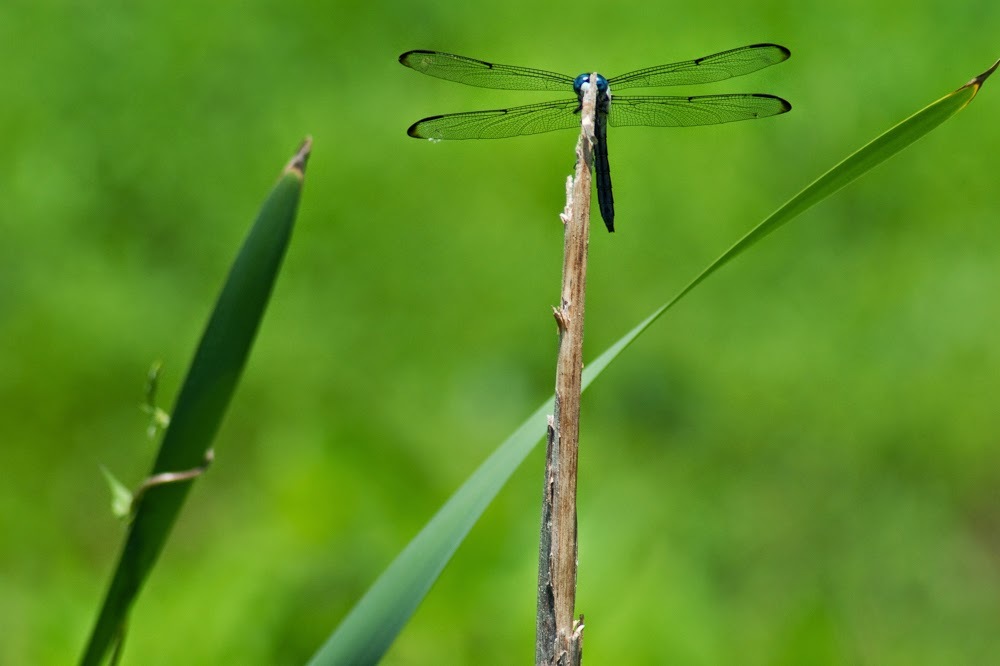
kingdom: Animalia
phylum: Arthropoda
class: Insecta
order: Odonata
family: Libellulidae
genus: Libellula
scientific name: Libellula vibrans
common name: Great blue skimmer
